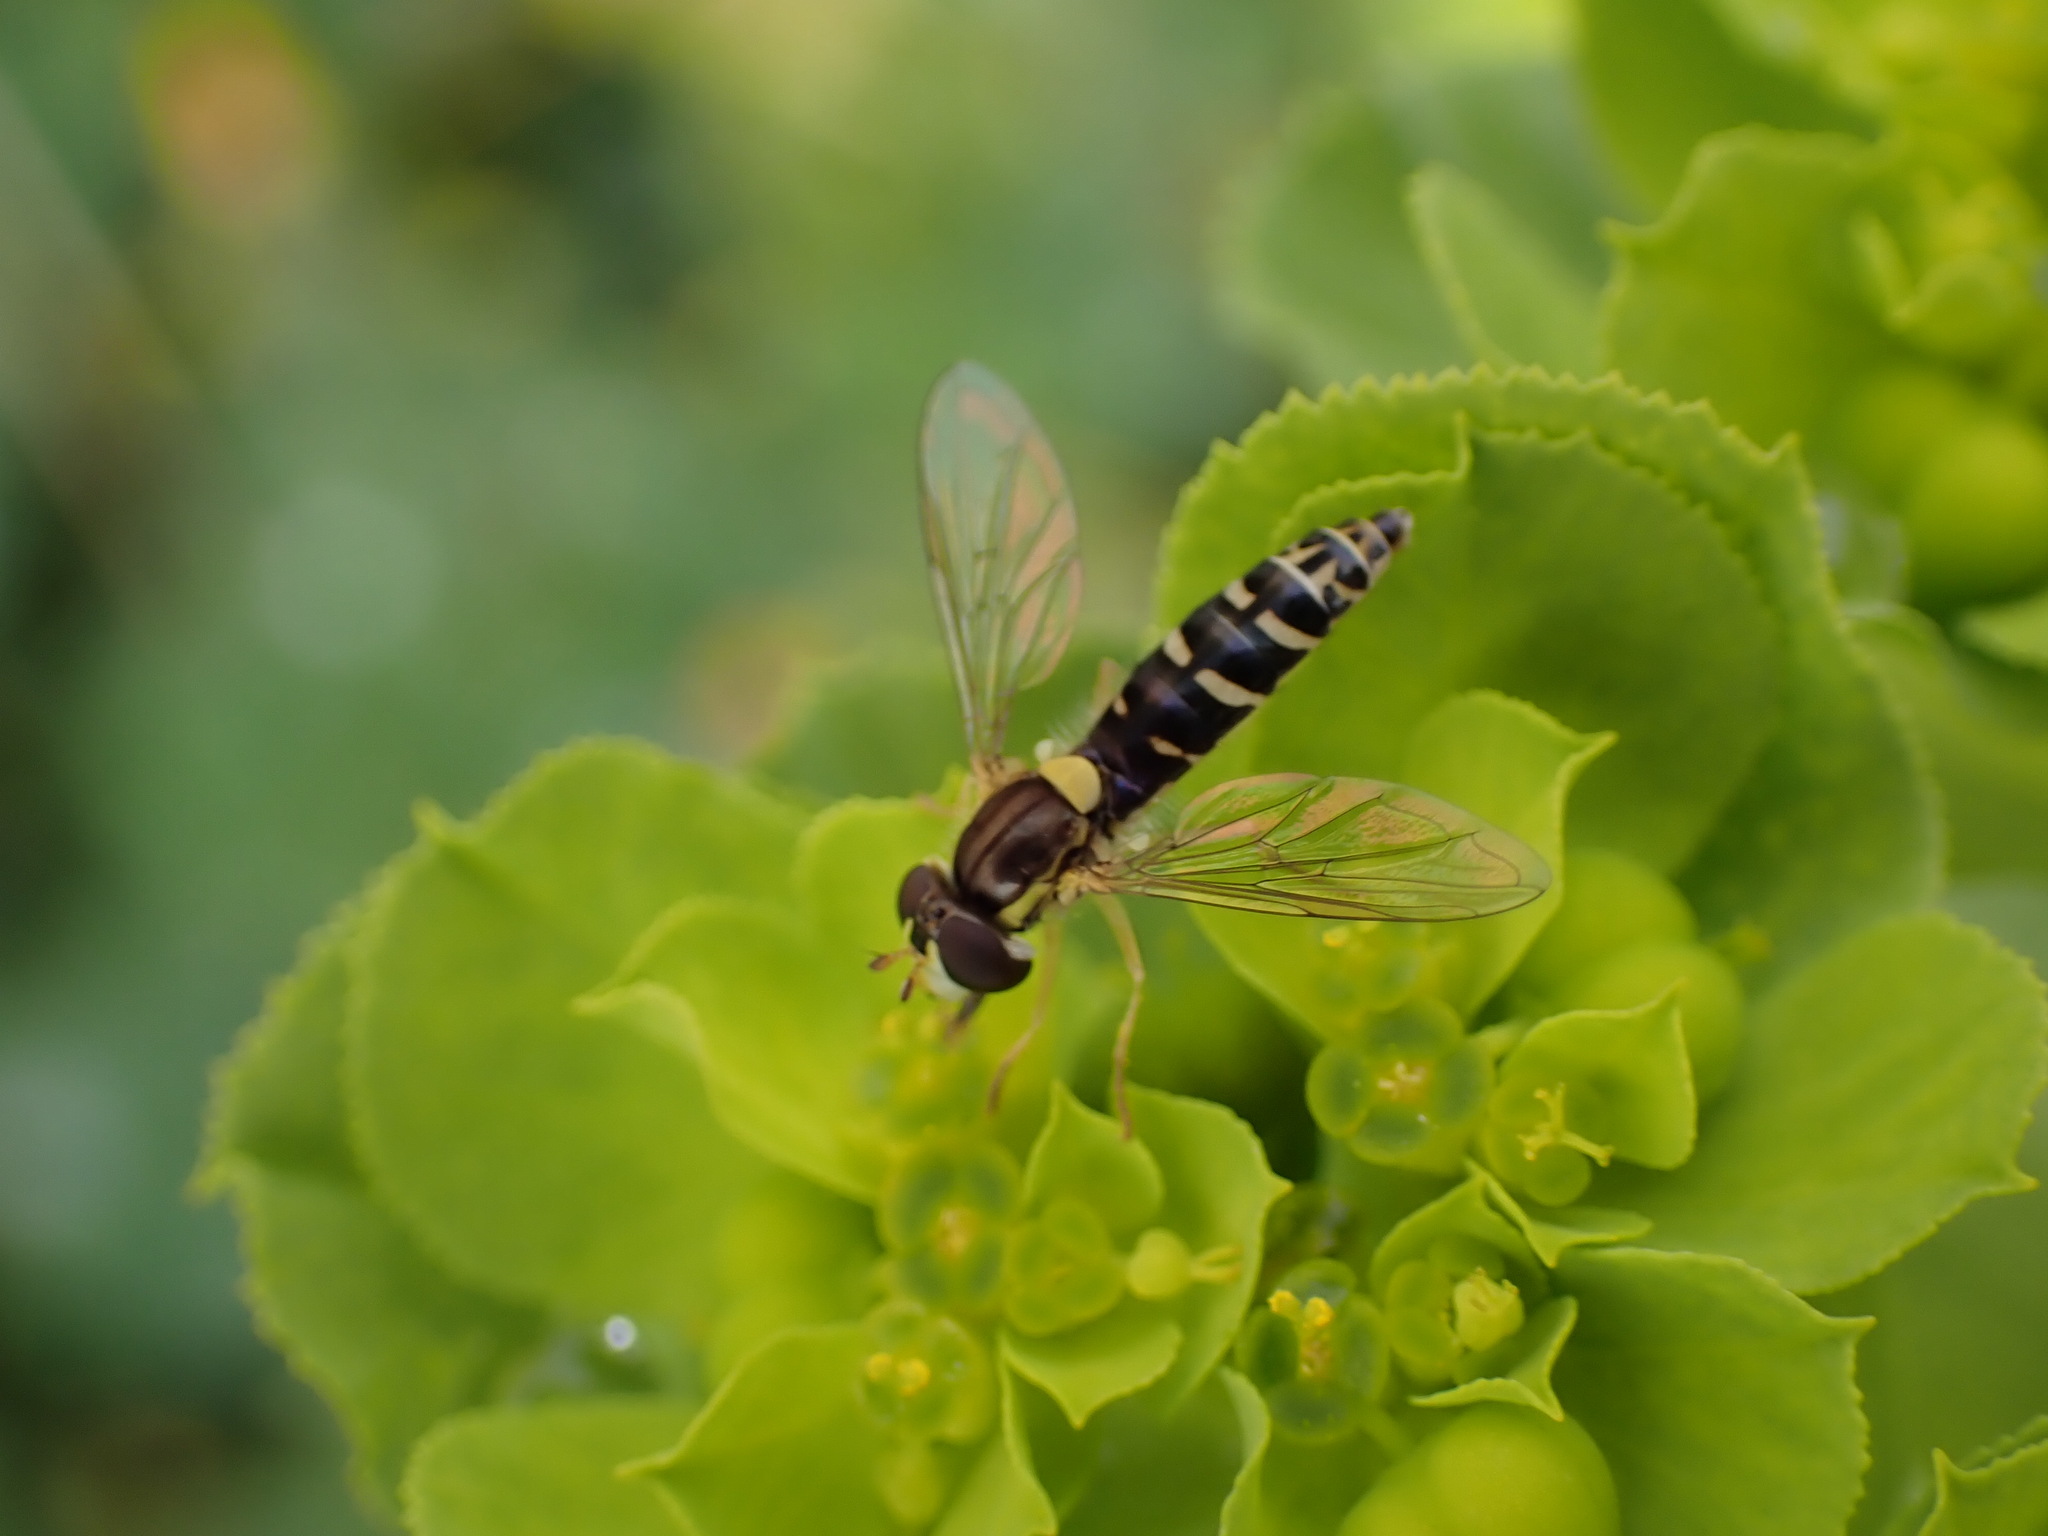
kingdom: Animalia
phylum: Arthropoda
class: Insecta
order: Diptera
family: Syrphidae
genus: Sphaerophoria
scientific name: Sphaerophoria
